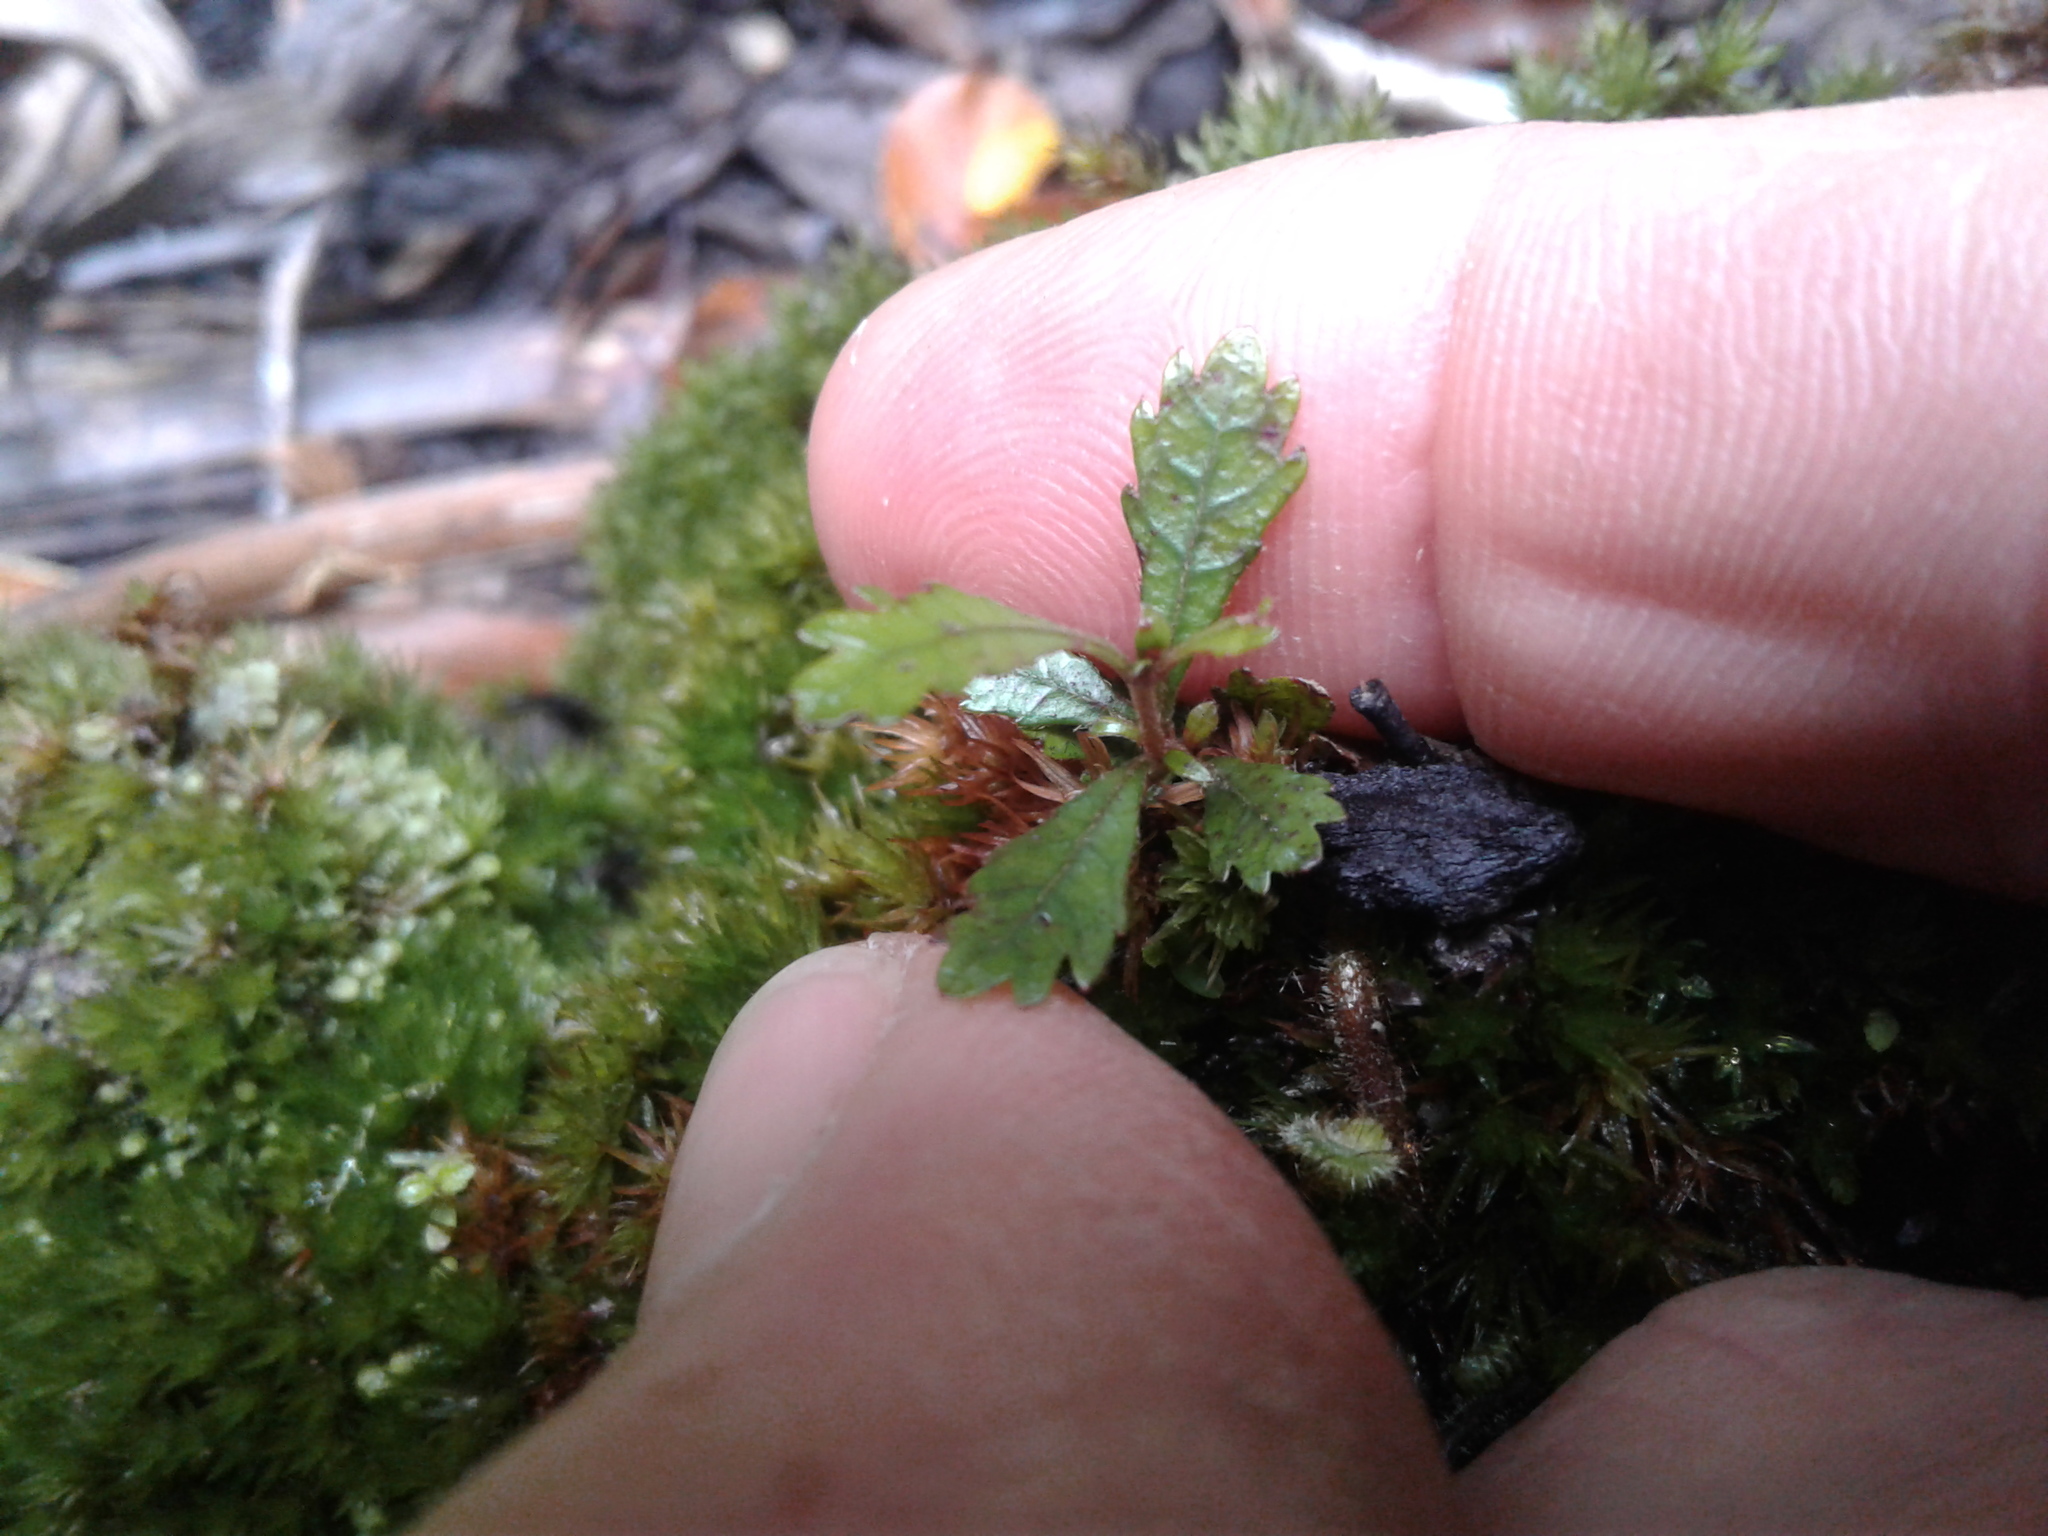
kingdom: Plantae
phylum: Tracheophyta
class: Magnoliopsida
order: Oxalidales
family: Cunoniaceae
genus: Pterophylla
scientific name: Pterophylla racemosa
